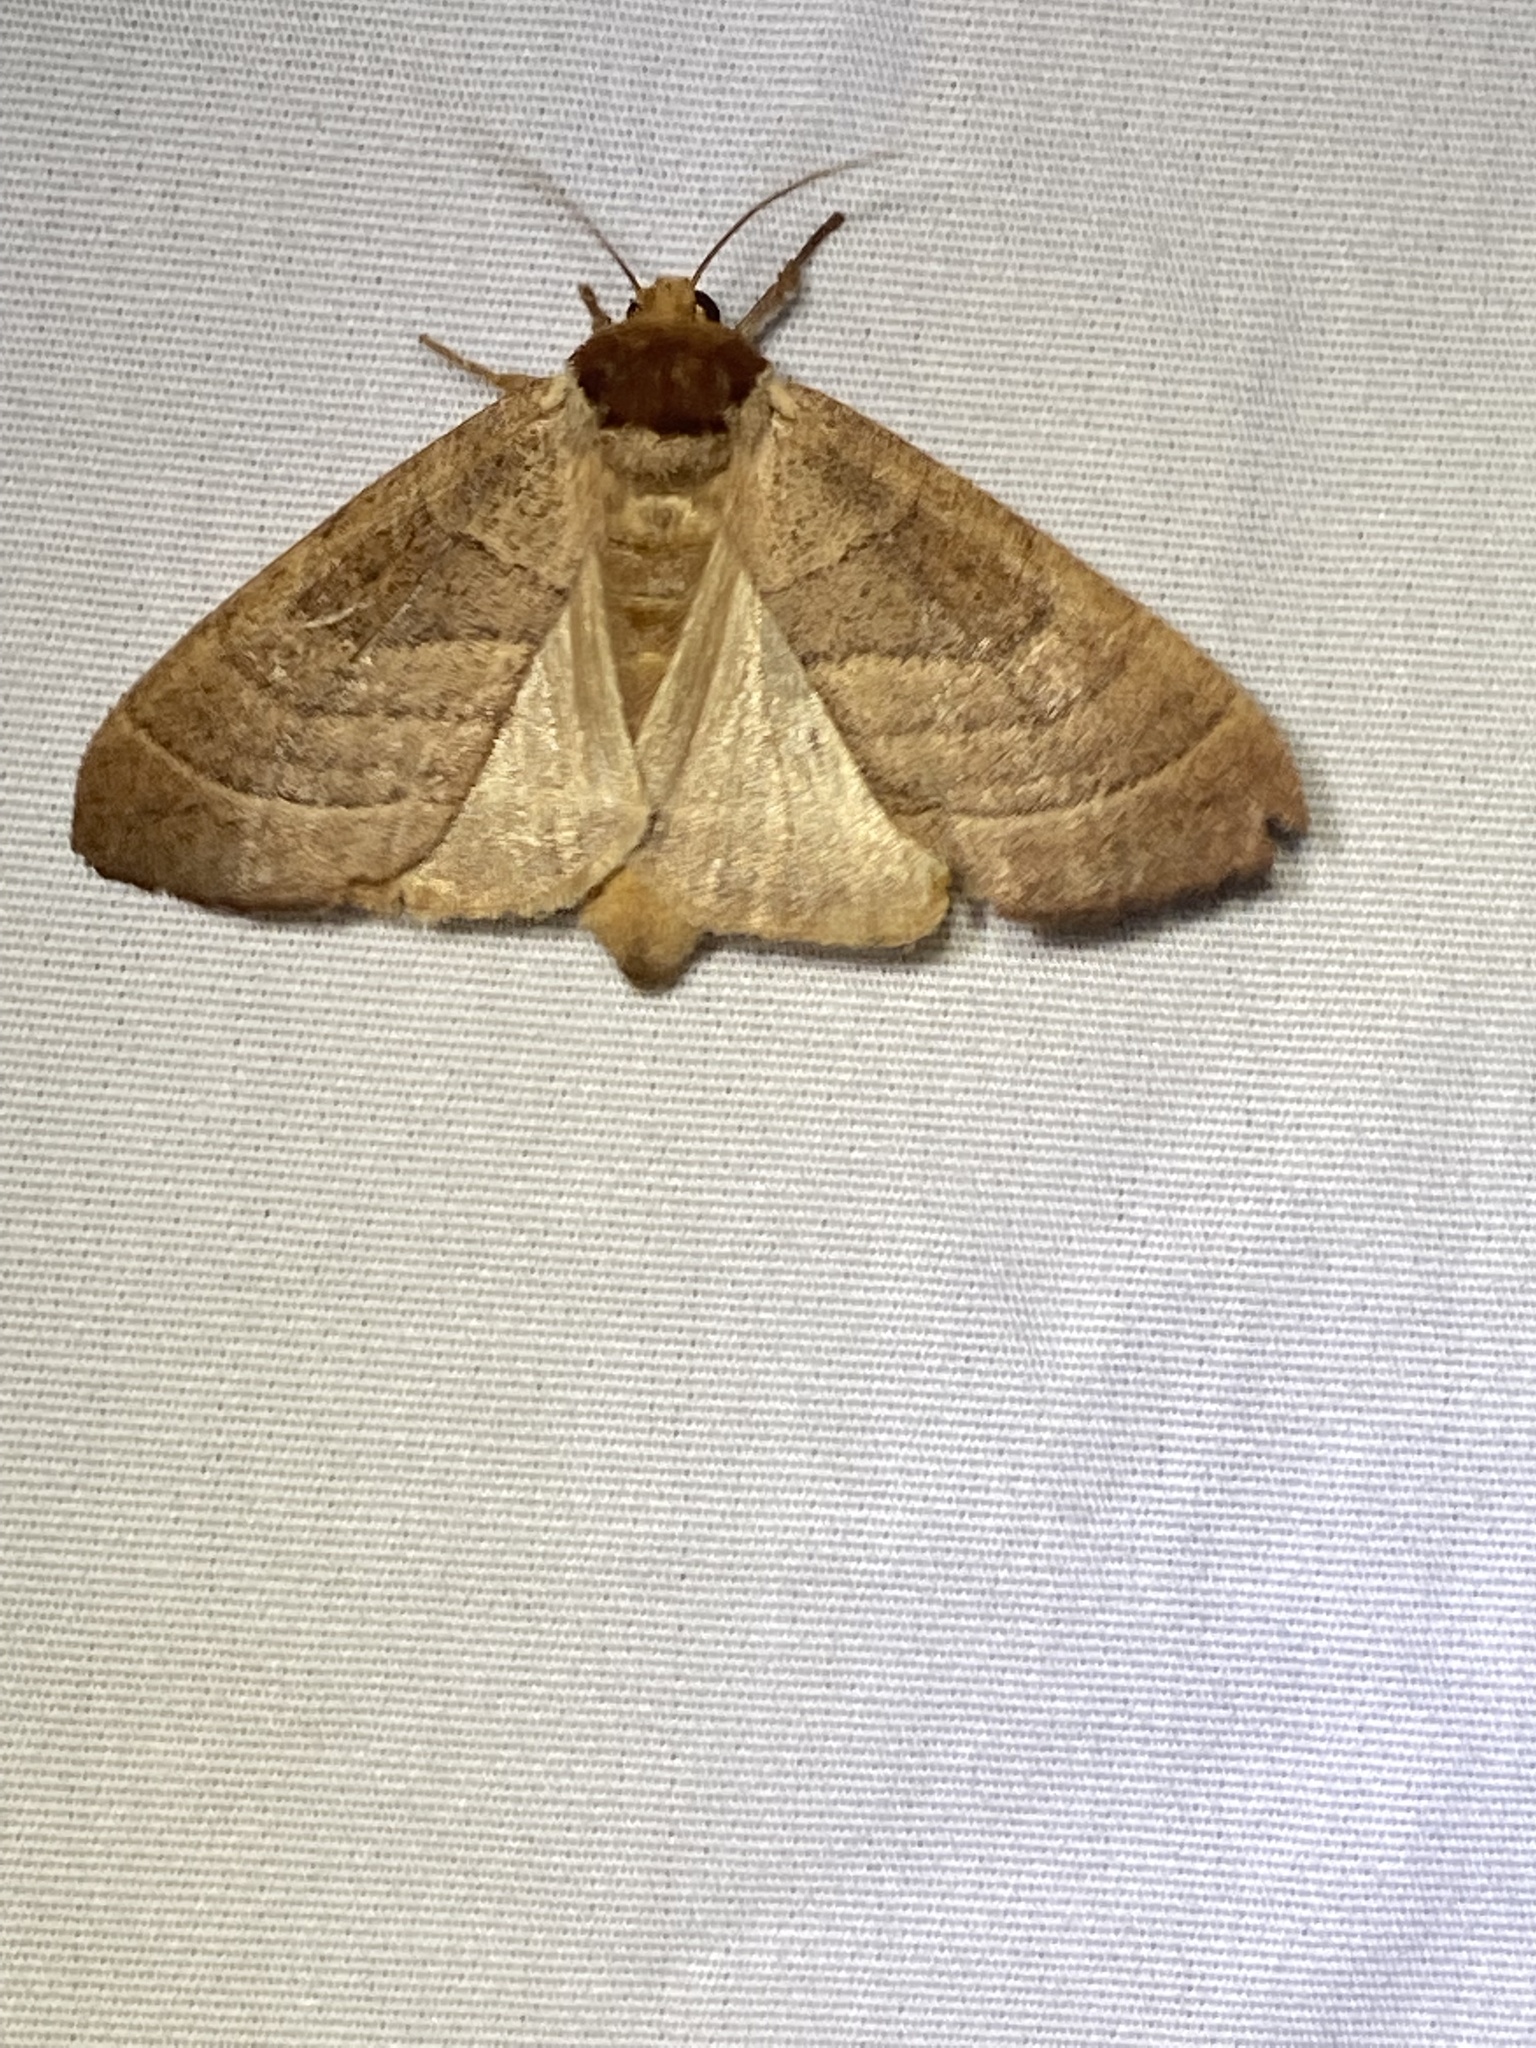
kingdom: Animalia
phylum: Arthropoda
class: Insecta
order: Lepidoptera
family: Notodontidae
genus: Datana
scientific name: Datana integerrima
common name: Walnut caterpillar
